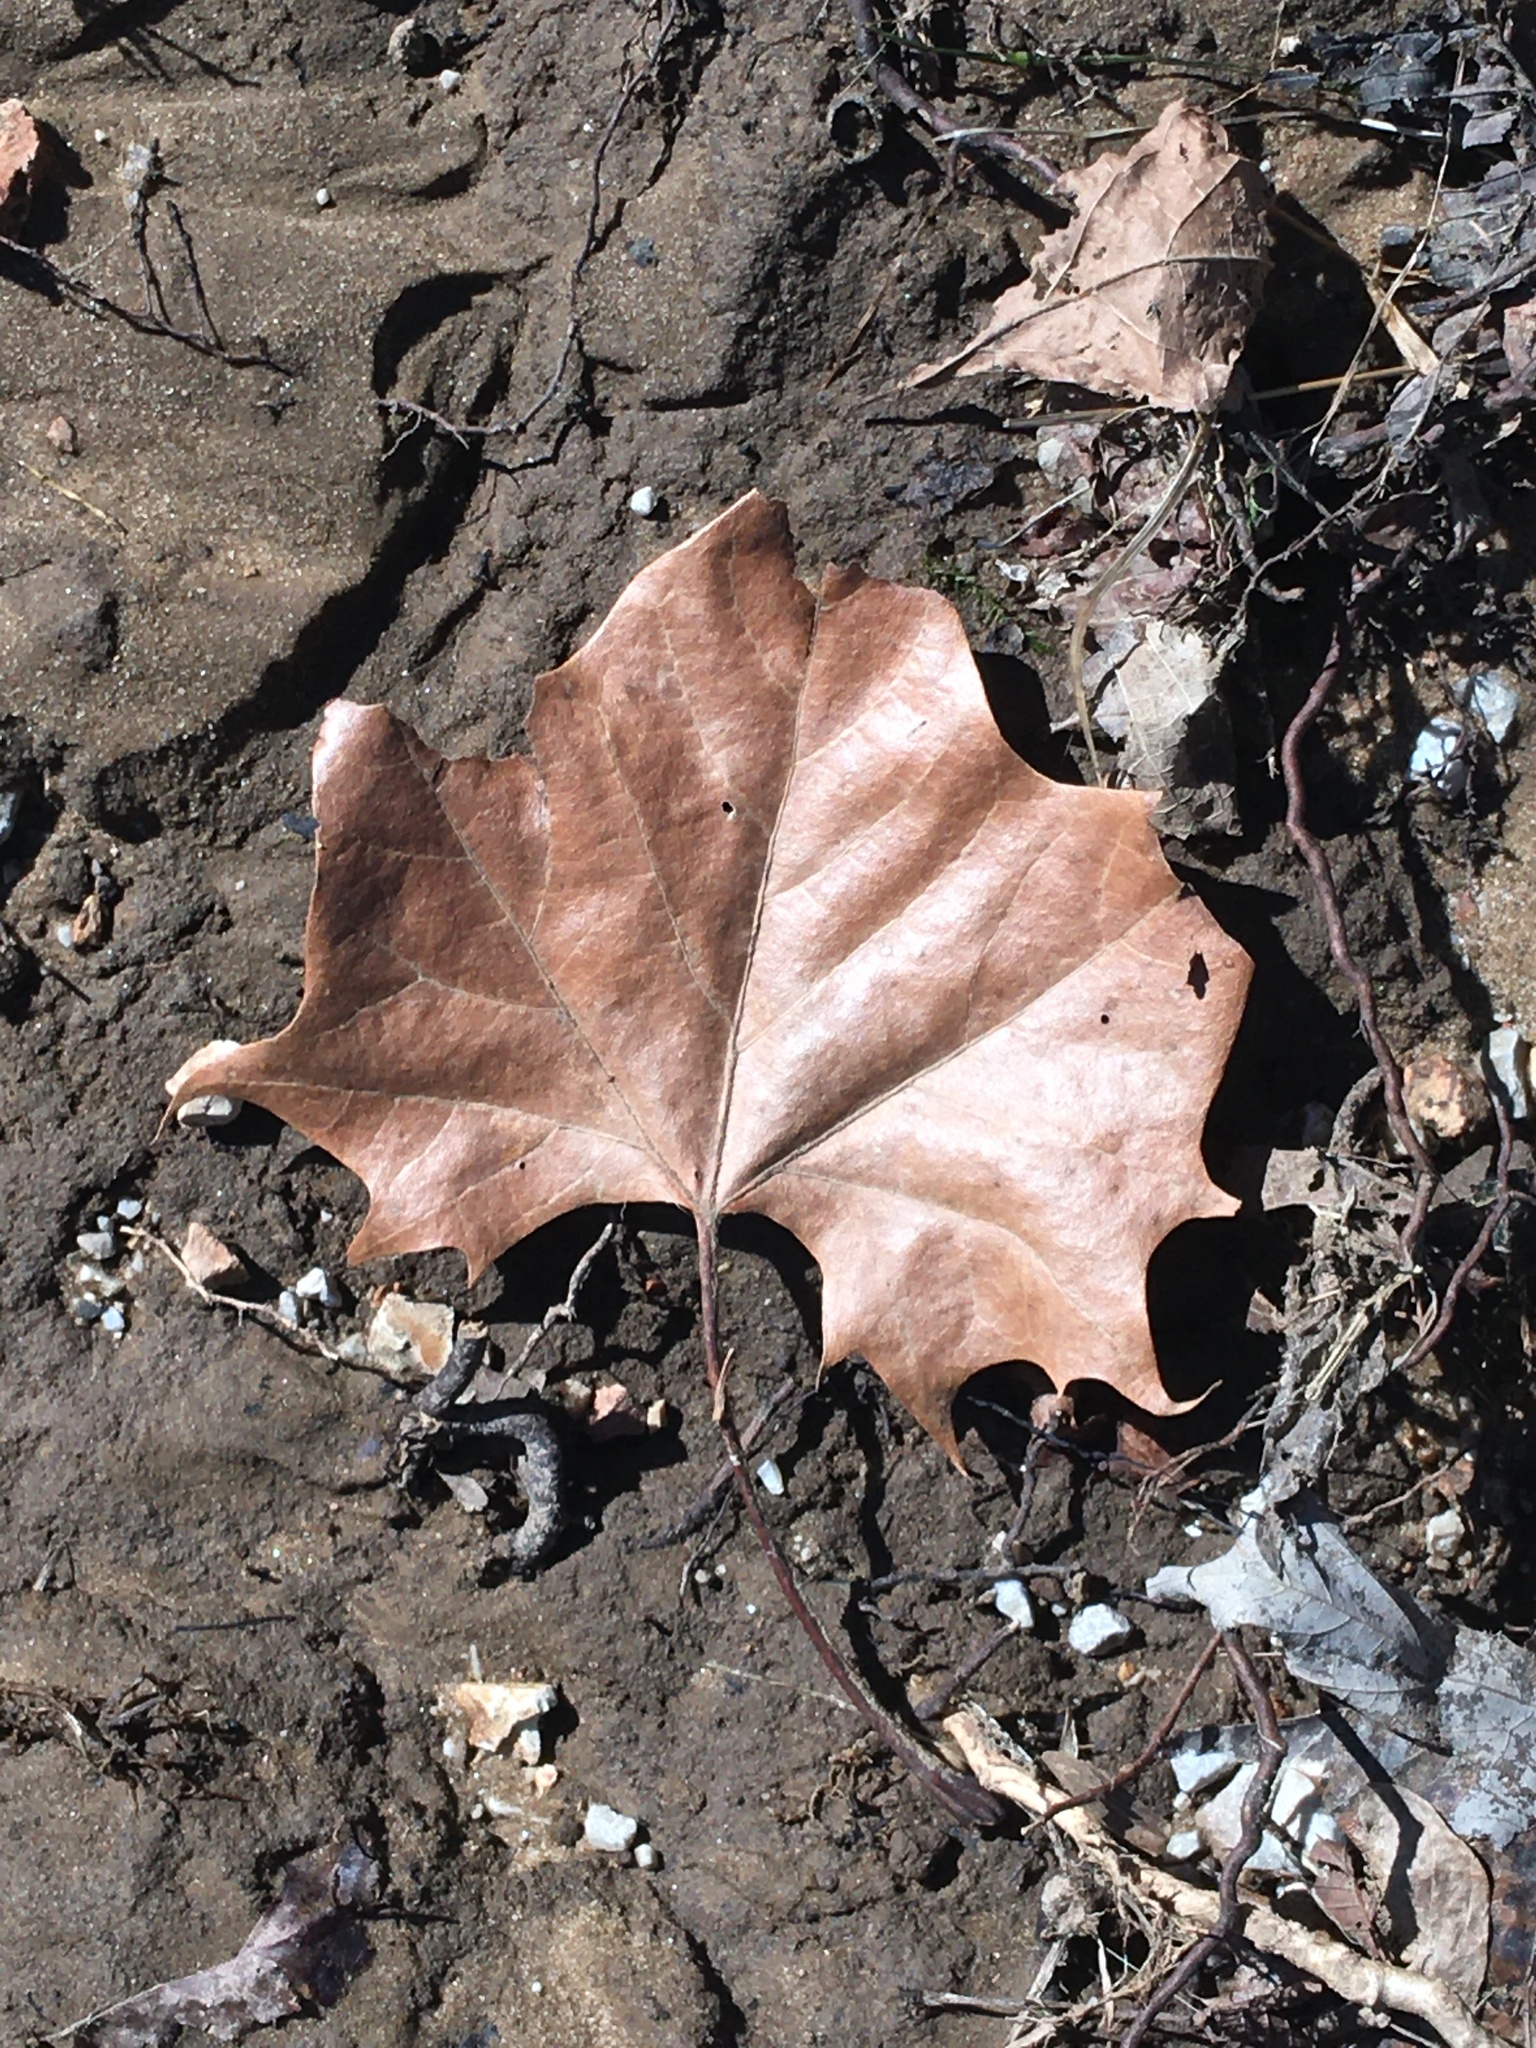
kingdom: Plantae
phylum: Tracheophyta
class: Magnoliopsida
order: Proteales
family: Platanaceae
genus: Platanus
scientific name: Platanus occidentalis
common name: American sycamore
